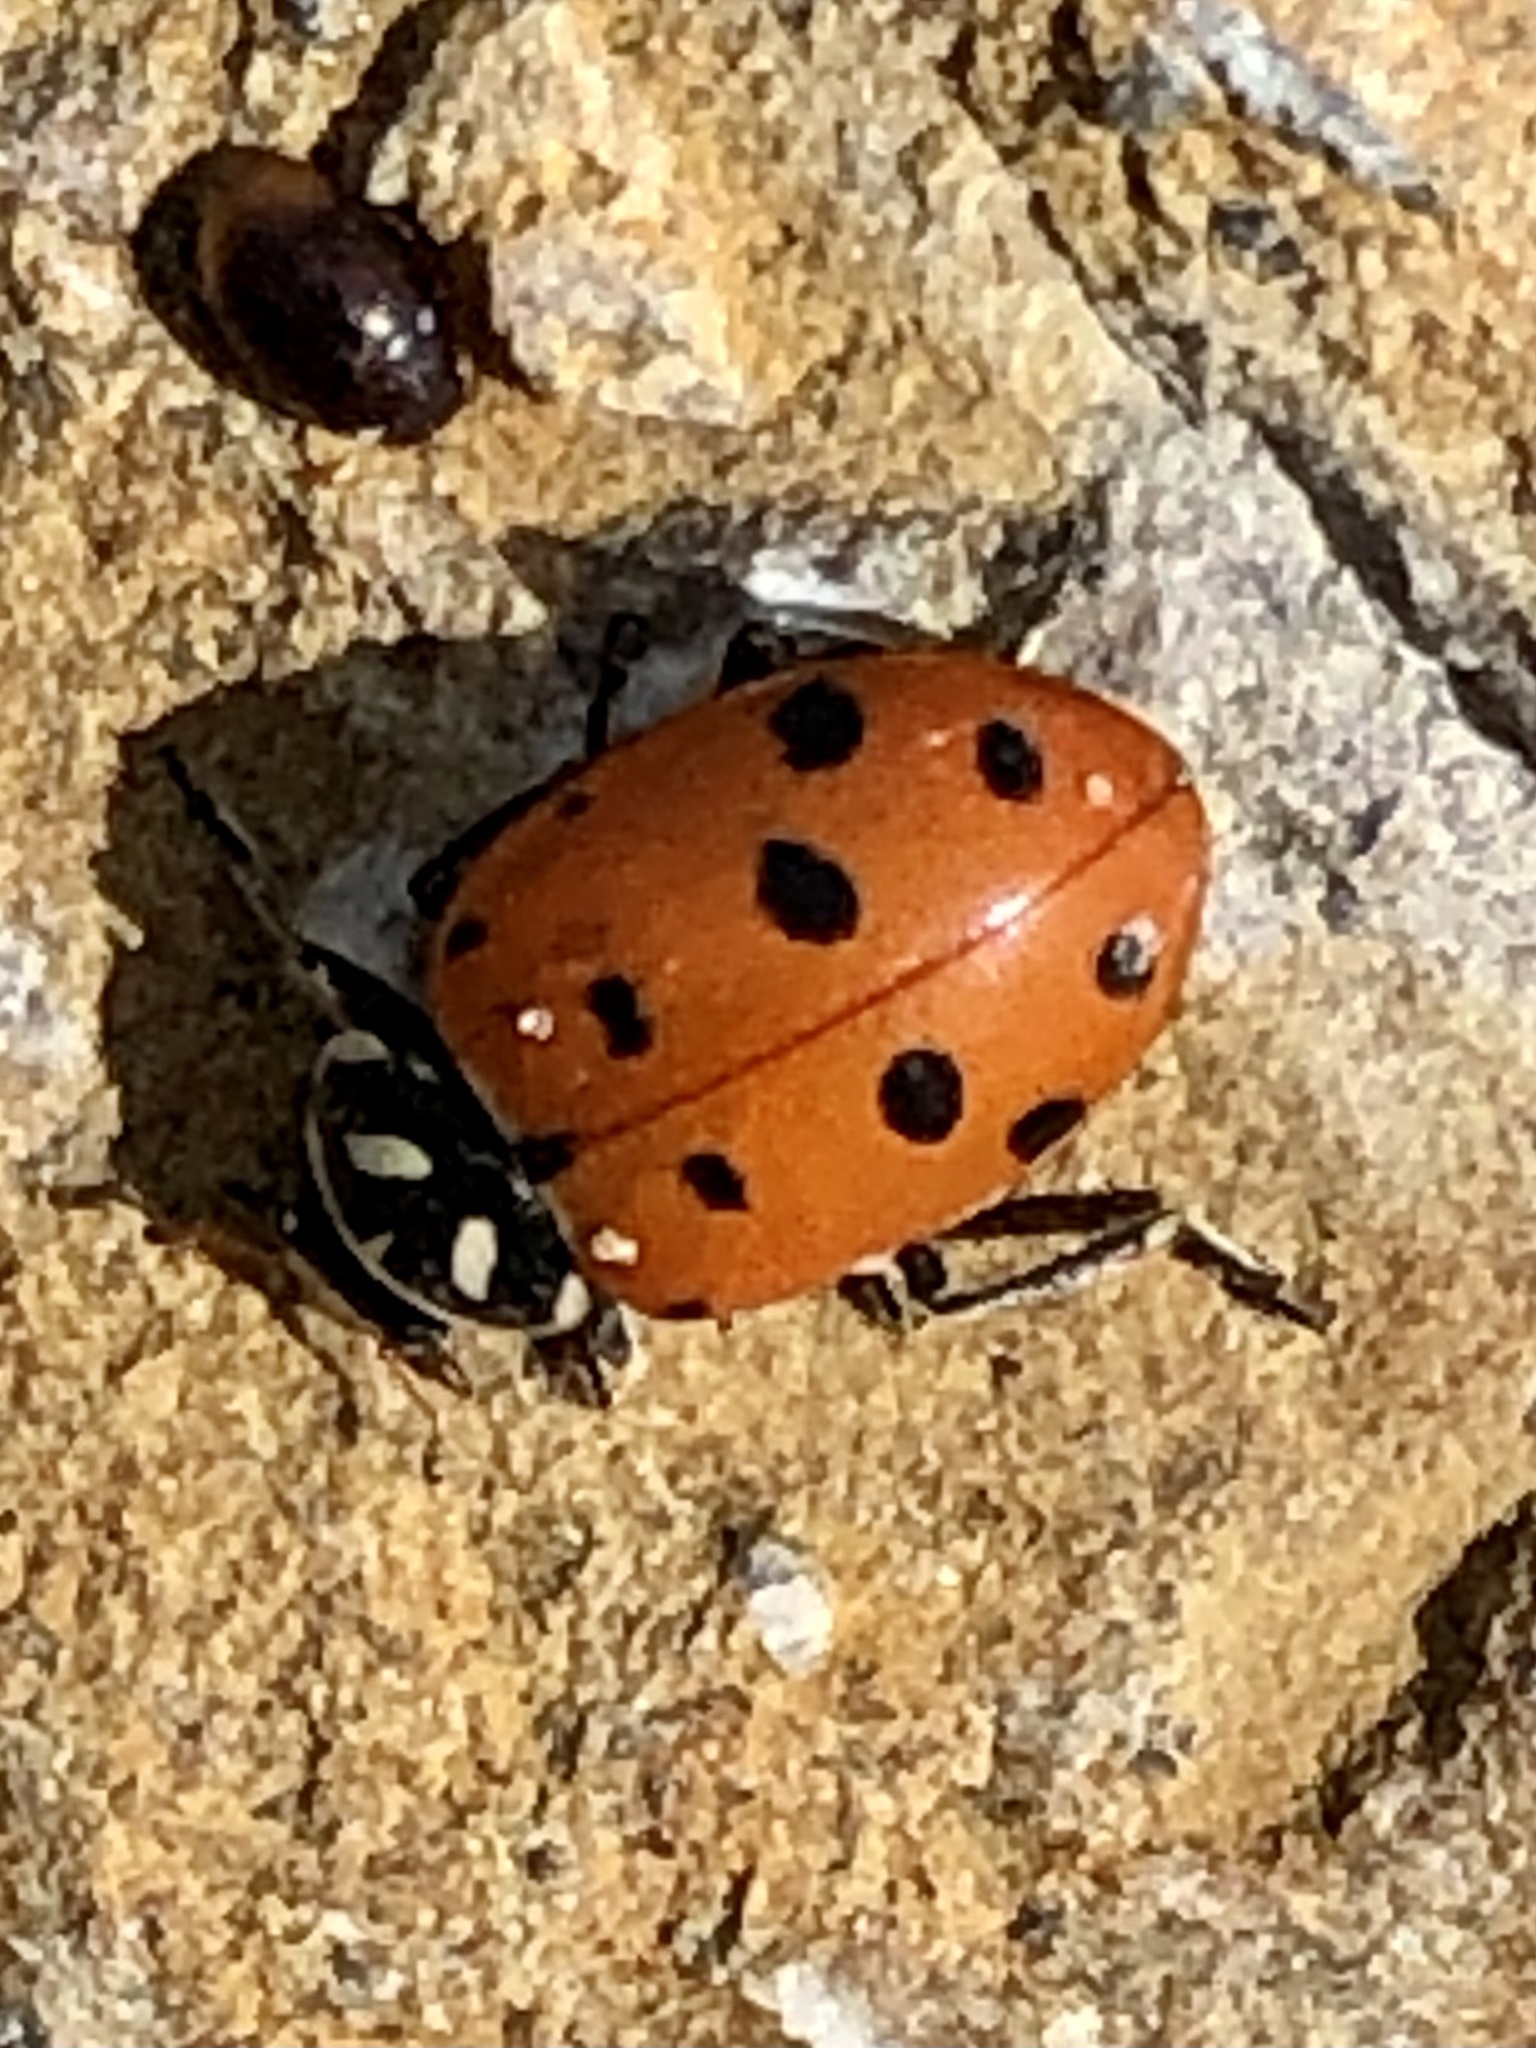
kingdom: Animalia
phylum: Arthropoda
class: Insecta
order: Coleoptera
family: Coccinellidae
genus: Hippodamia
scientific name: Hippodamia convergens
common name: Convergent lady beetle
